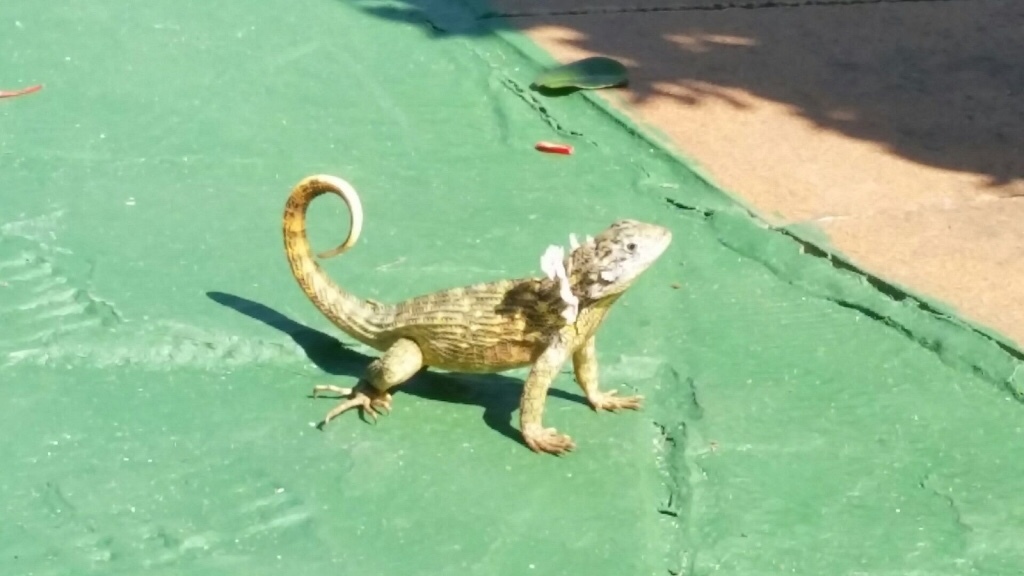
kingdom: Animalia
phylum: Chordata
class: Squamata
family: Leiocephalidae
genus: Leiocephalus
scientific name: Leiocephalus carinatus
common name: Northern curly-tailed lizard
